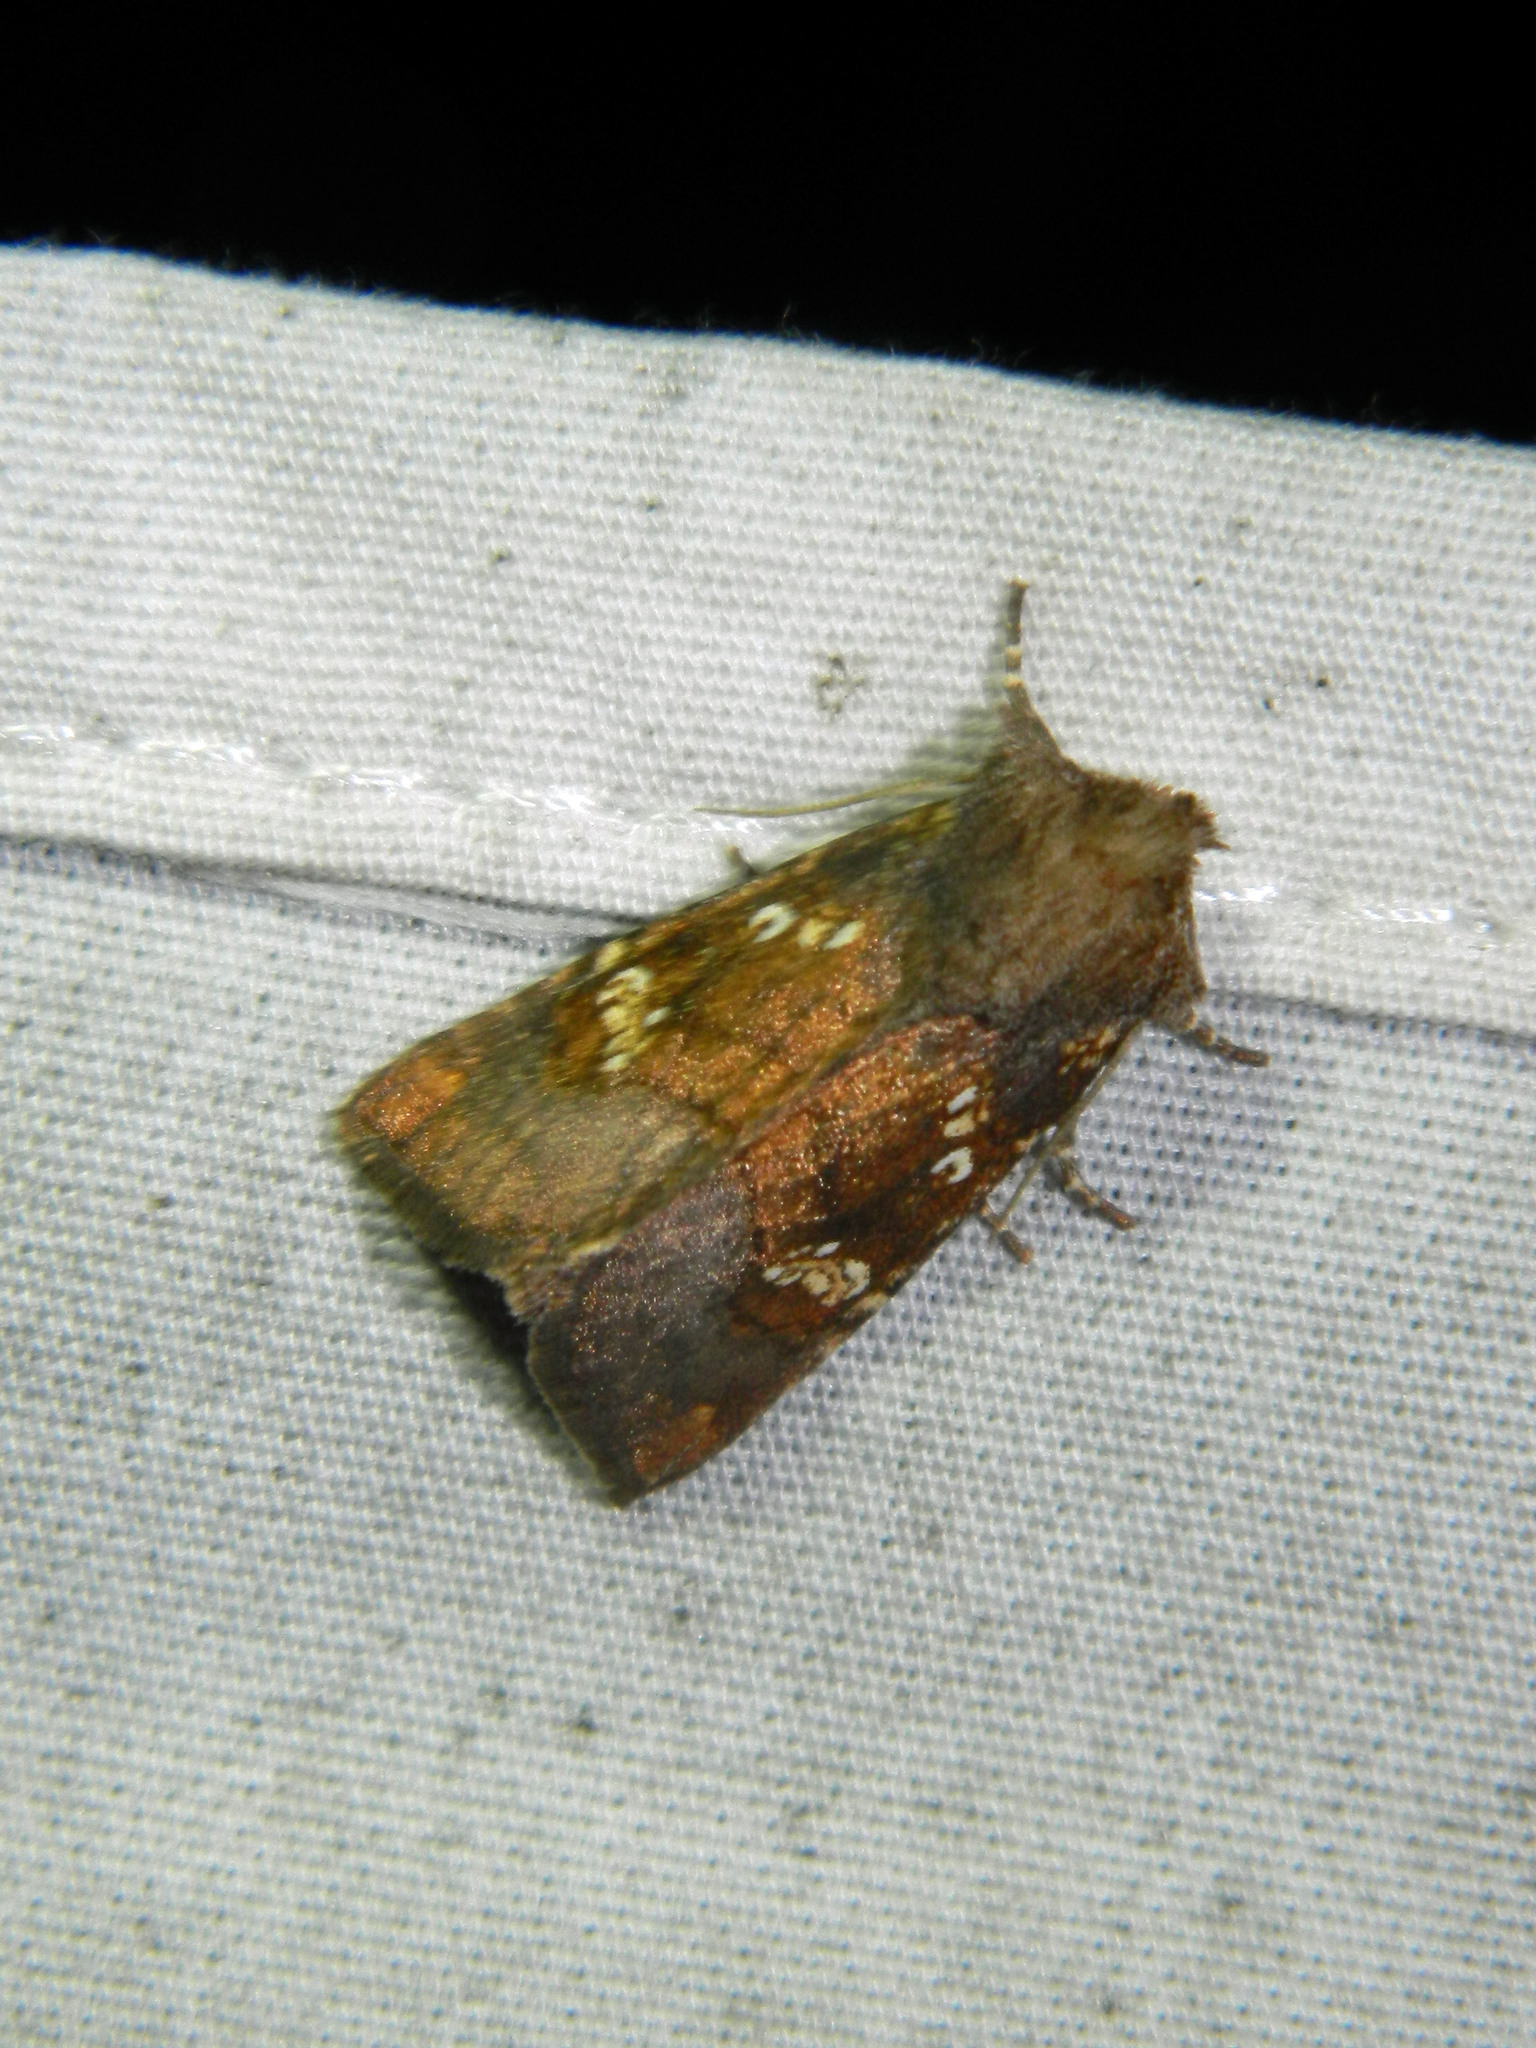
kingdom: Animalia
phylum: Arthropoda
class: Insecta
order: Lepidoptera
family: Noctuidae
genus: Papaipema
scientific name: Papaipema unimoda
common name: Meadow rue borer moth
